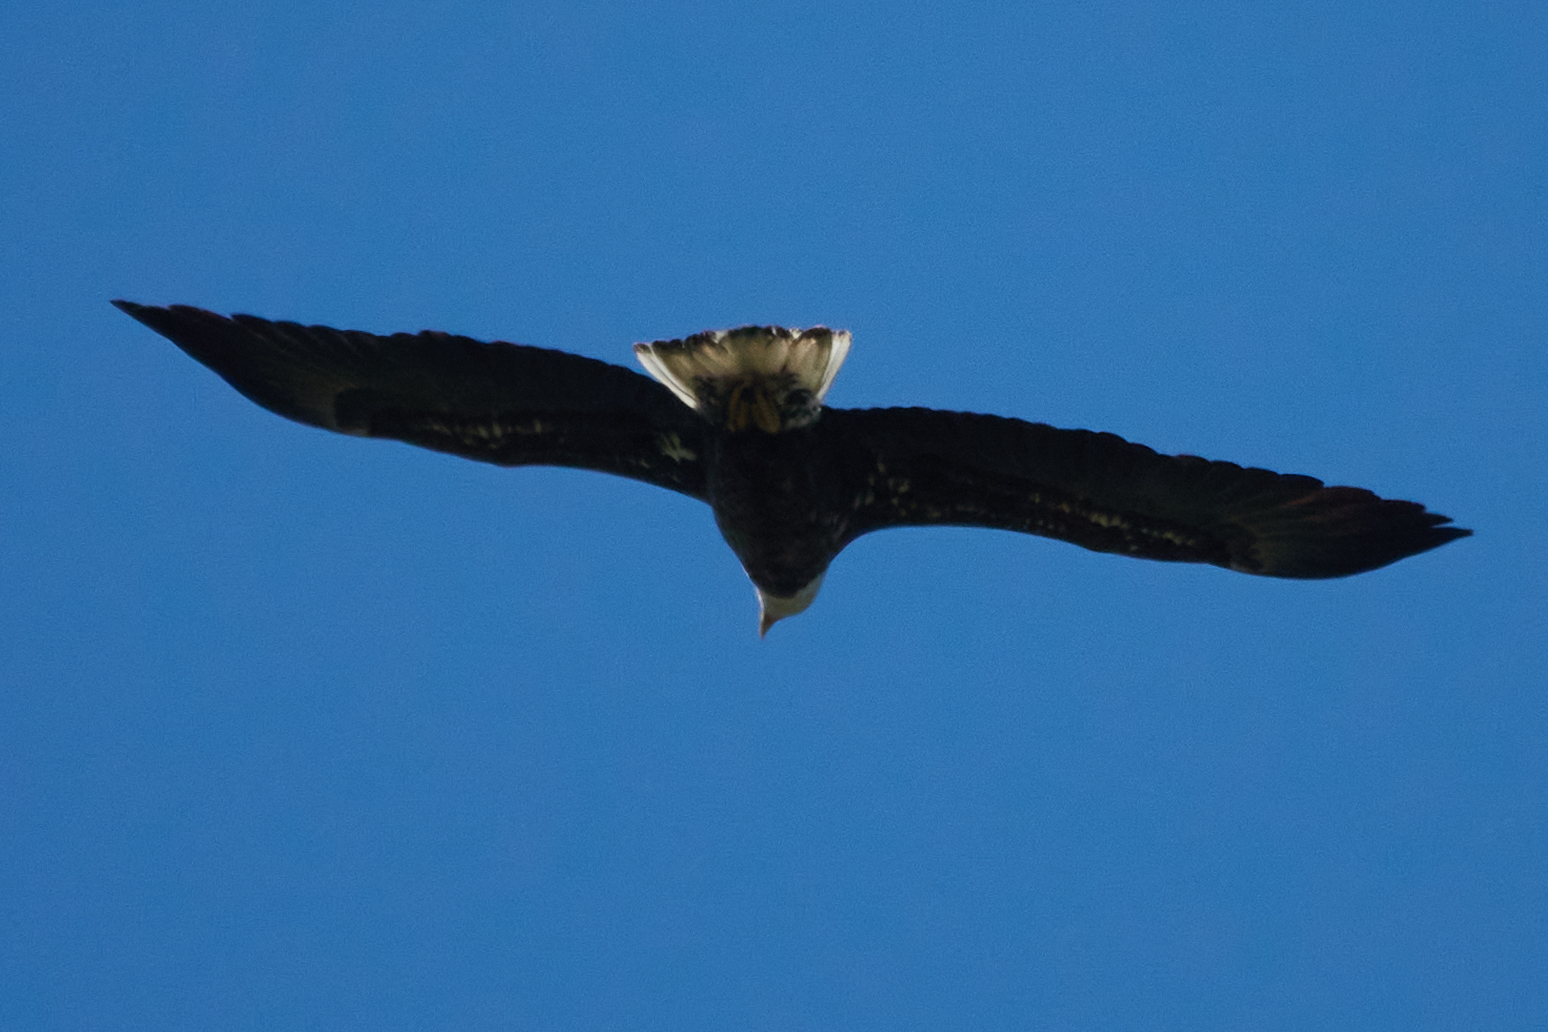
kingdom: Animalia
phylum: Chordata
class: Aves
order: Accipitriformes
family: Accipitridae
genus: Haliaeetus
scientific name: Haliaeetus leucocephalus
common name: Bald eagle
